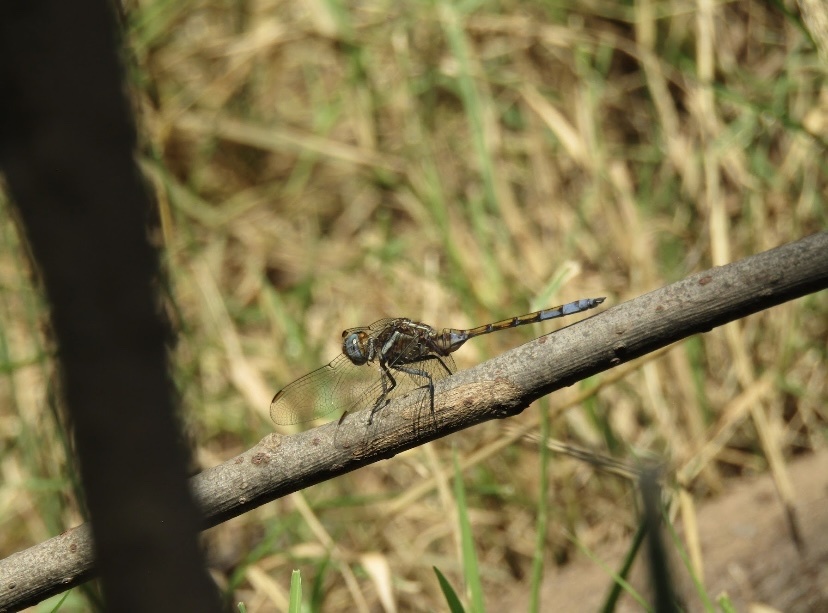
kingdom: Animalia
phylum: Arthropoda
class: Insecta
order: Odonata
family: Libellulidae
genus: Orthetrum
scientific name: Orthetrum chrysostigma
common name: Epaulet skimmer
